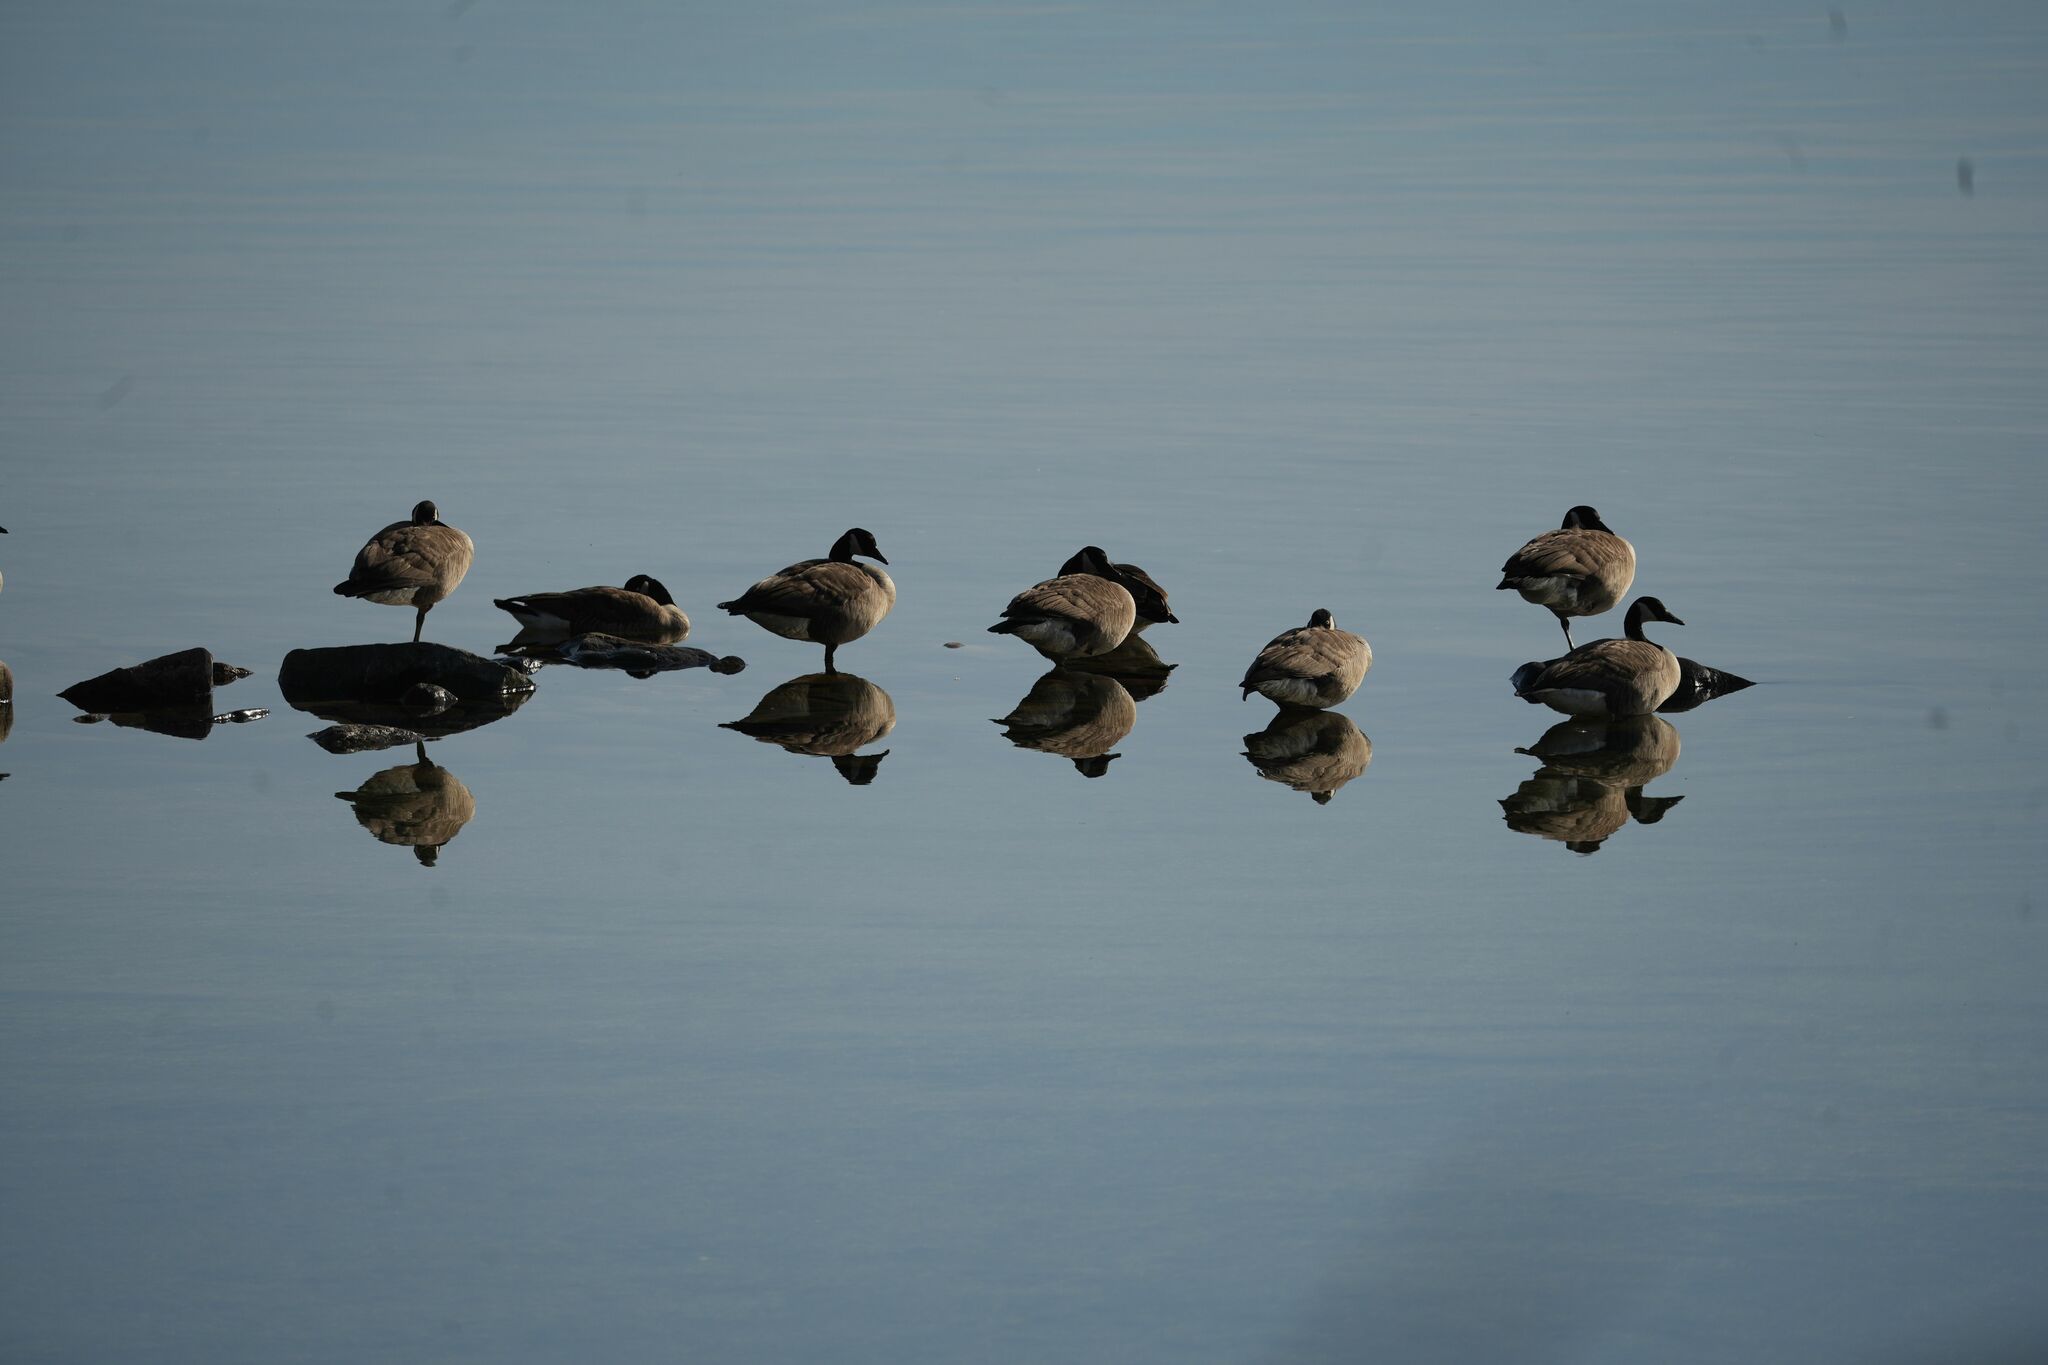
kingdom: Animalia
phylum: Chordata
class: Aves
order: Anseriformes
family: Anatidae
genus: Branta
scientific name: Branta canadensis
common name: Canada goose
